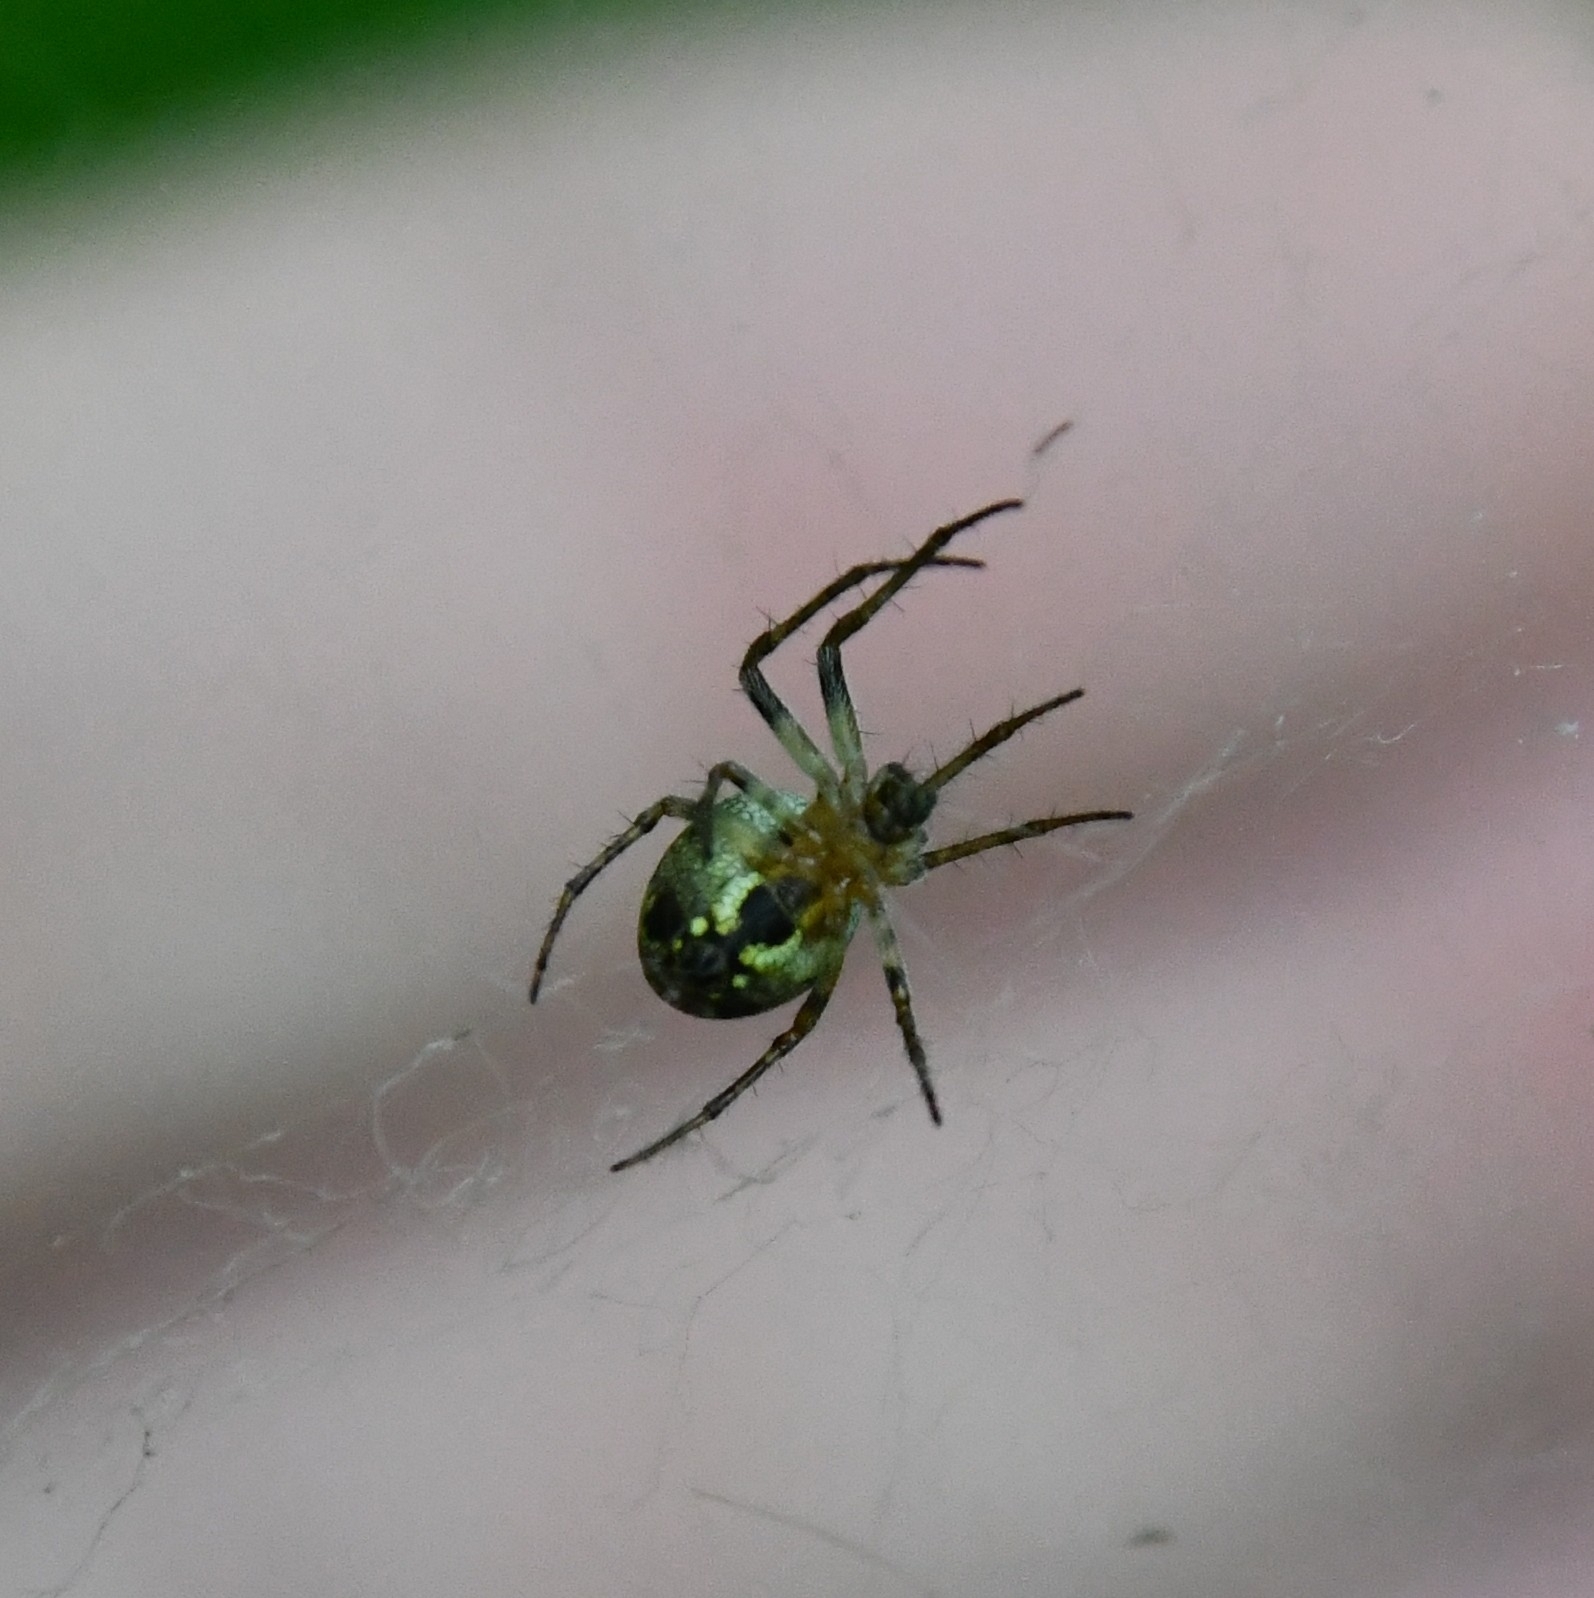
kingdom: Animalia
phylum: Arthropoda
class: Arachnida
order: Araneae
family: Araneidae
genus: Zilla
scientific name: Zilla diodia
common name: Zilla diodia
